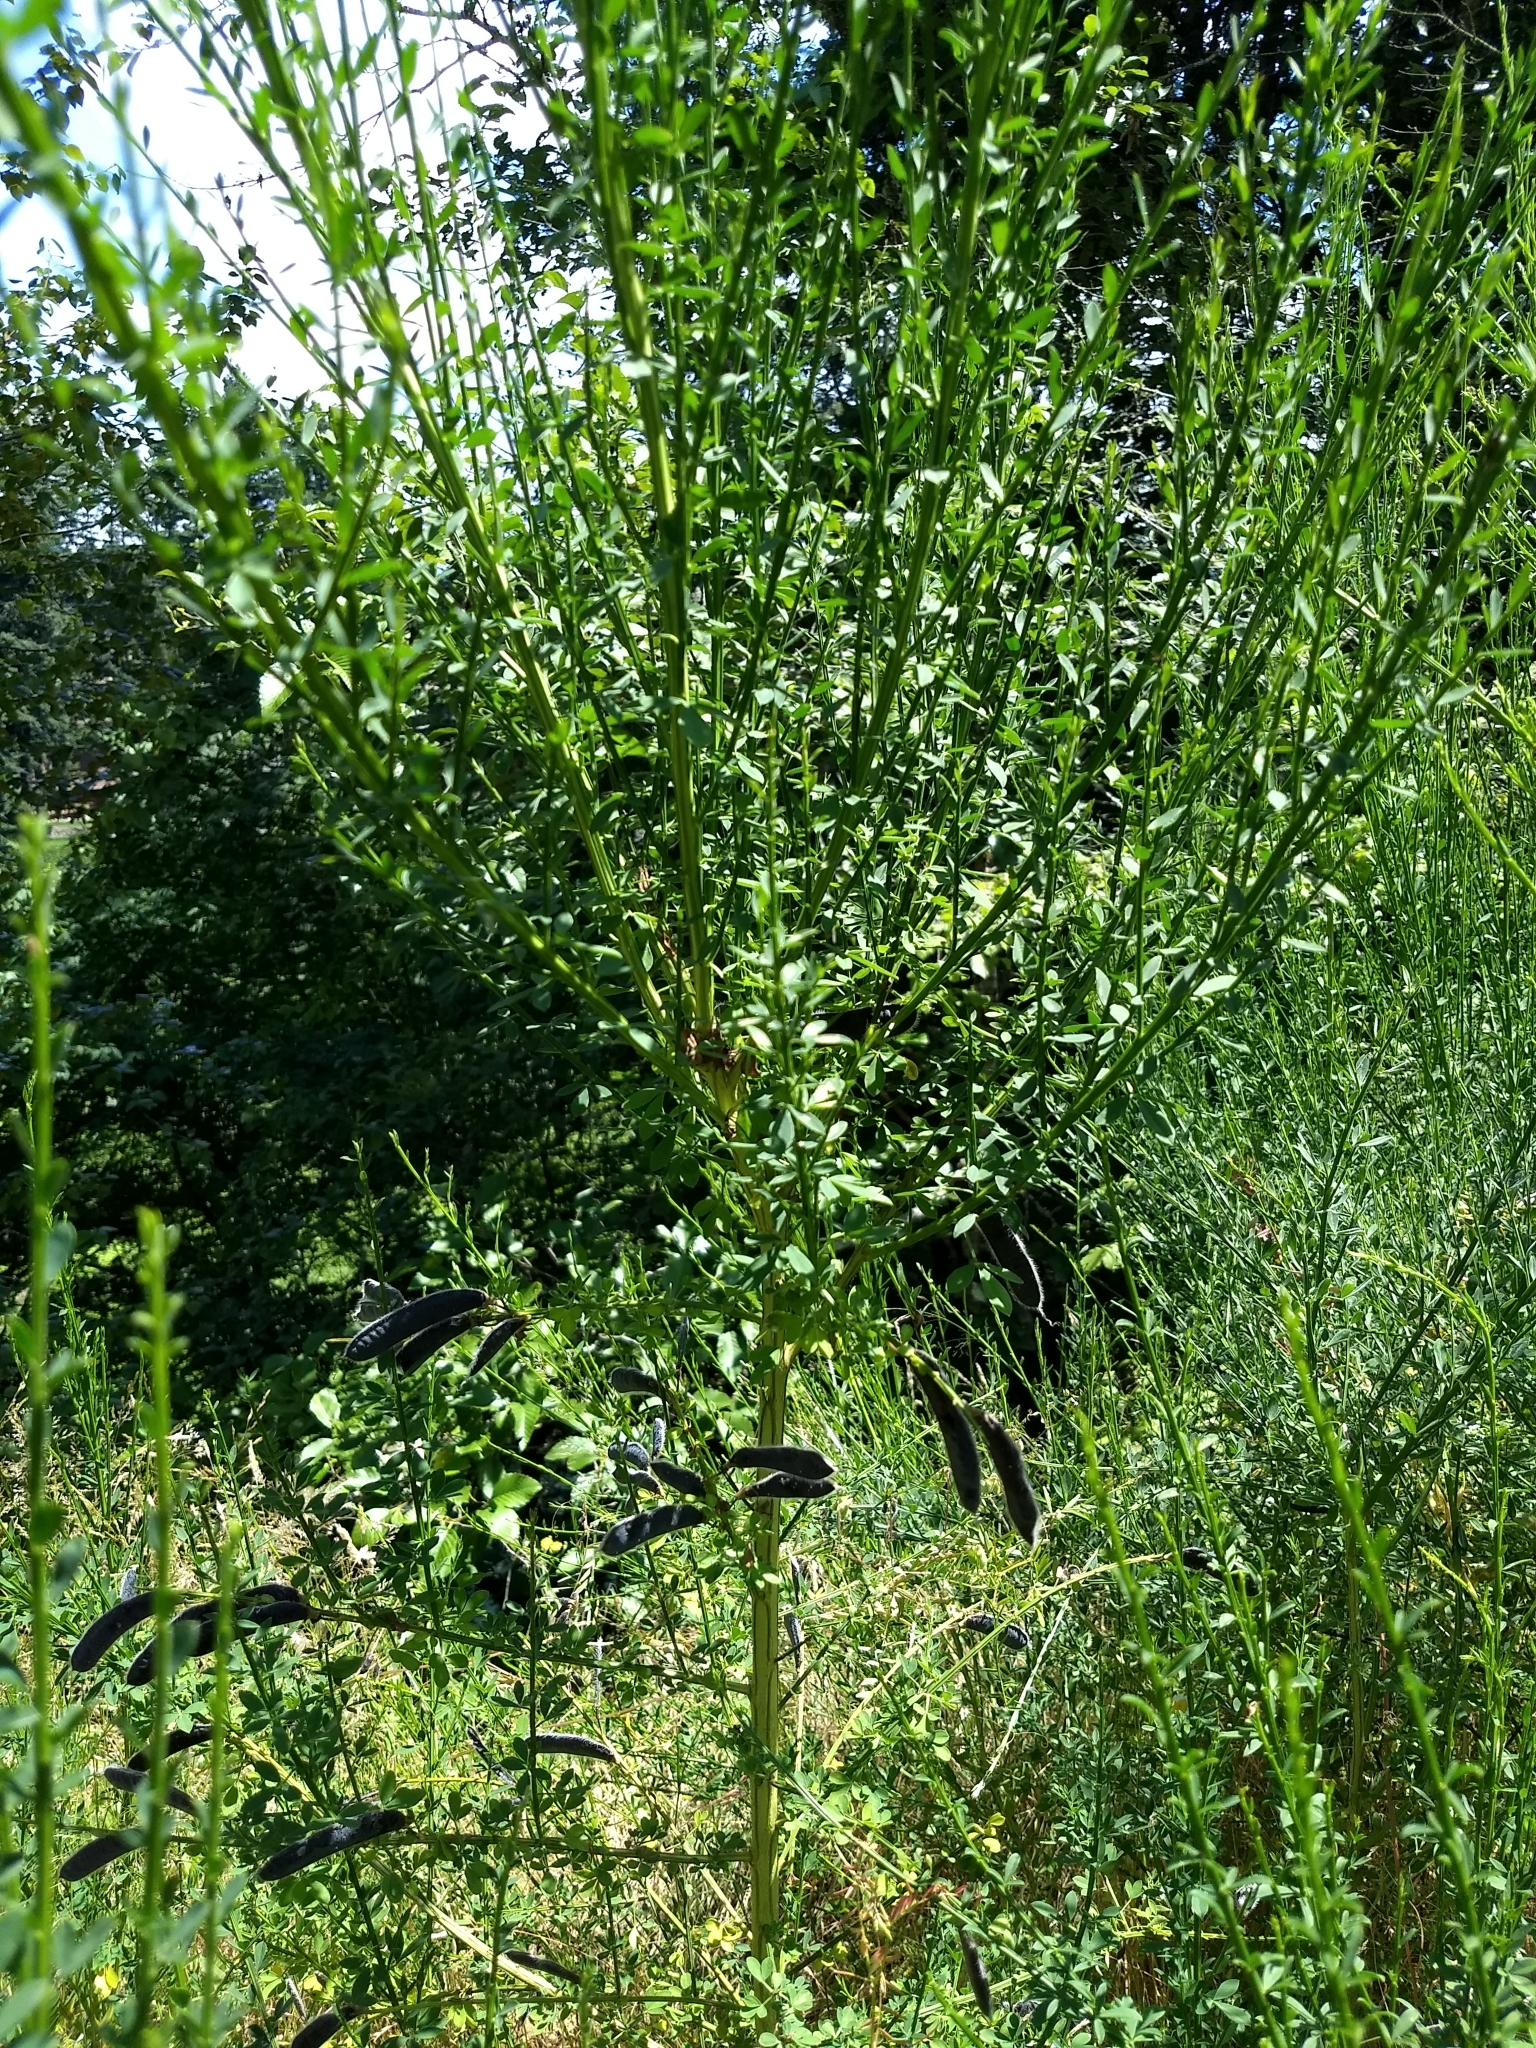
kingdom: Plantae
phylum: Tracheophyta
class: Magnoliopsida
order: Fabales
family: Fabaceae
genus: Cytisus
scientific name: Cytisus scoparius
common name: Scotch broom
